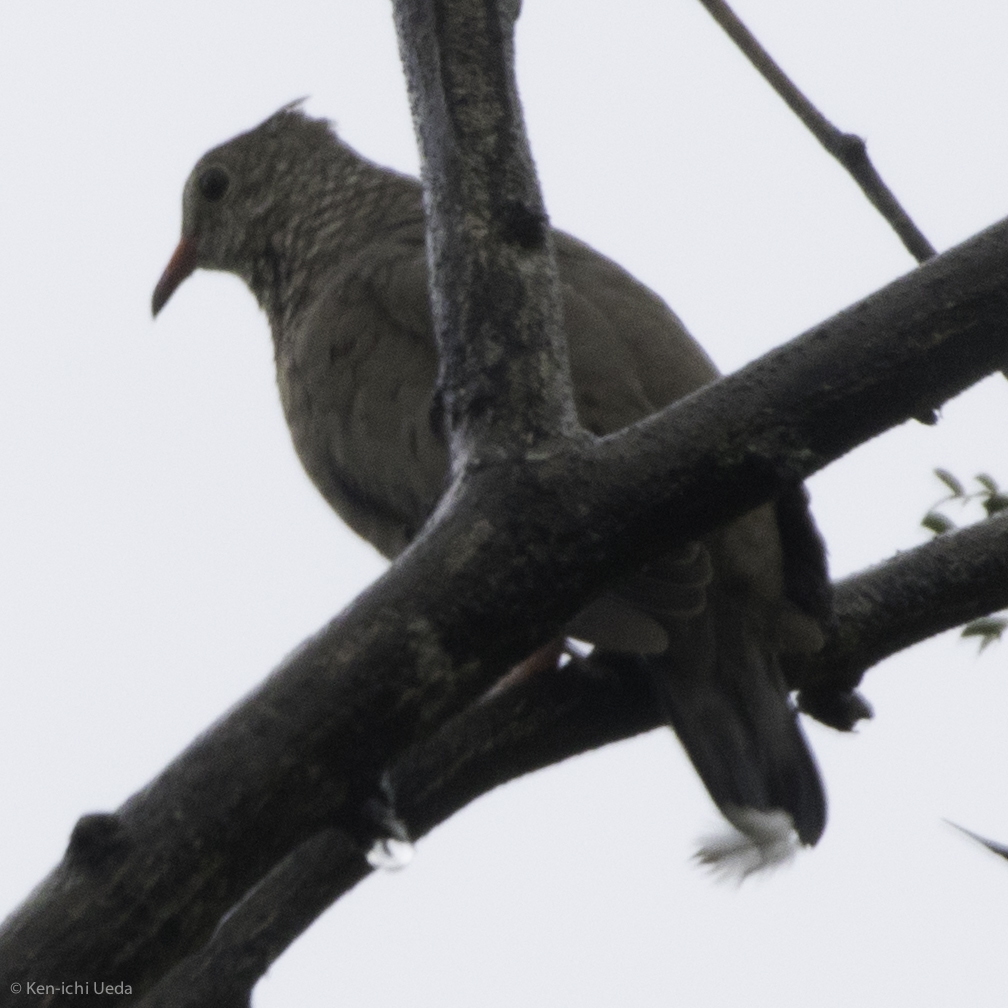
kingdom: Animalia
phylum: Chordata
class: Aves
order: Columbiformes
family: Columbidae
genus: Columbina
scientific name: Columbina passerina
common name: Common ground-dove
